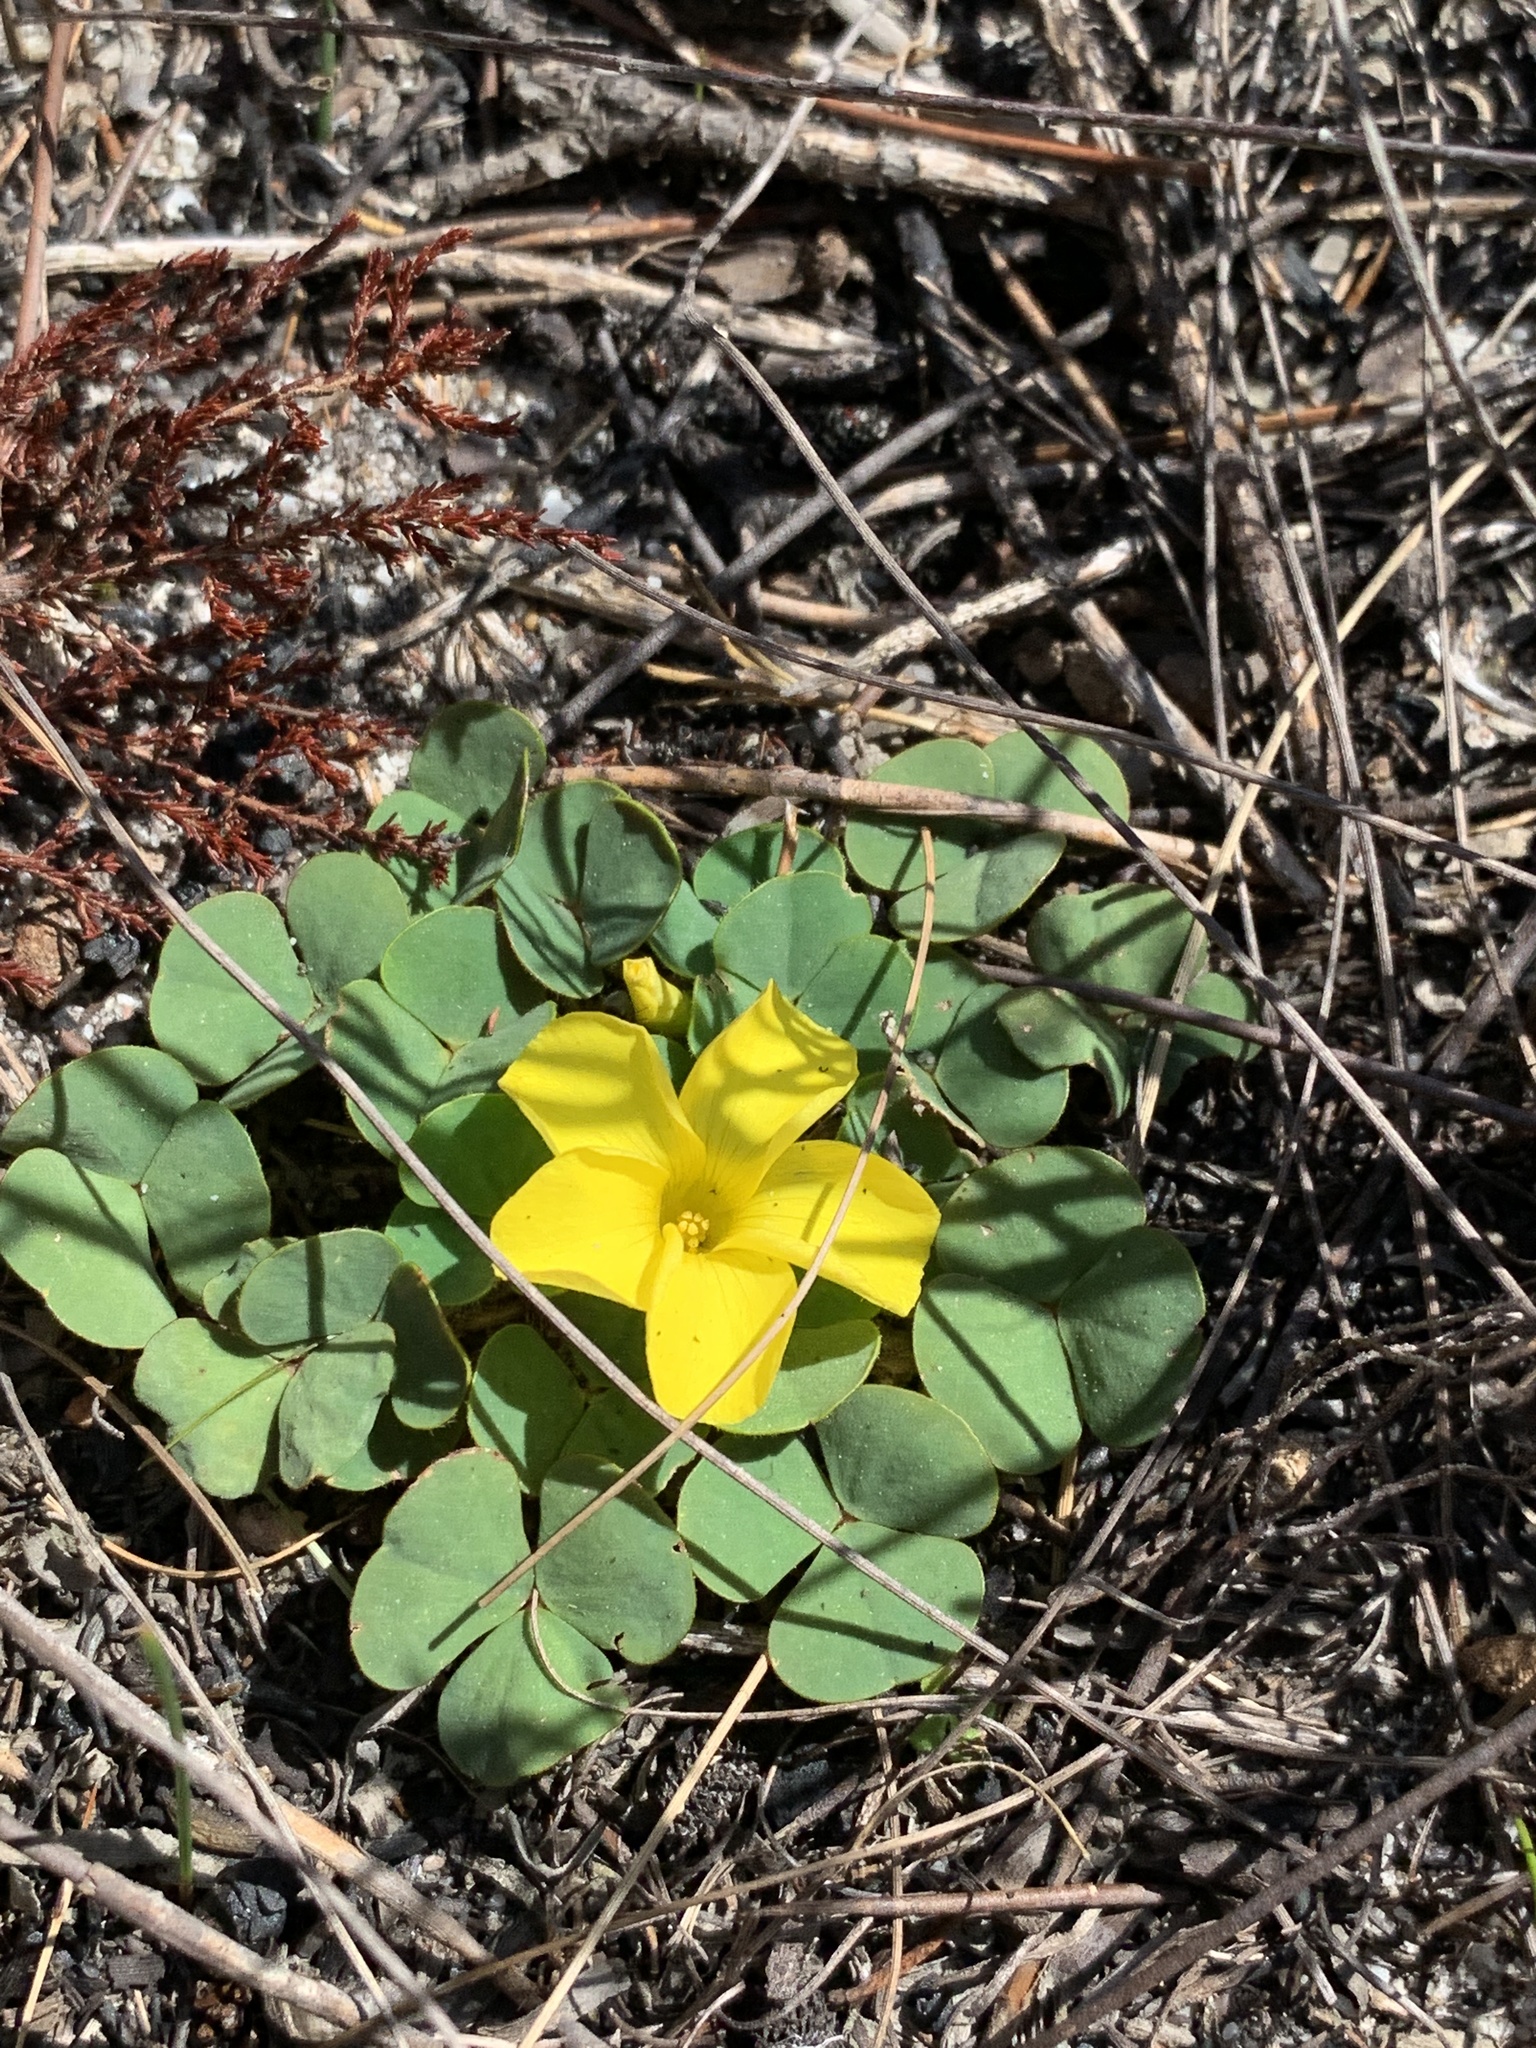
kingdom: Plantae
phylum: Tracheophyta
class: Magnoliopsida
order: Oxalidales
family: Oxalidaceae
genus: Oxalis
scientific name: Oxalis luteola
